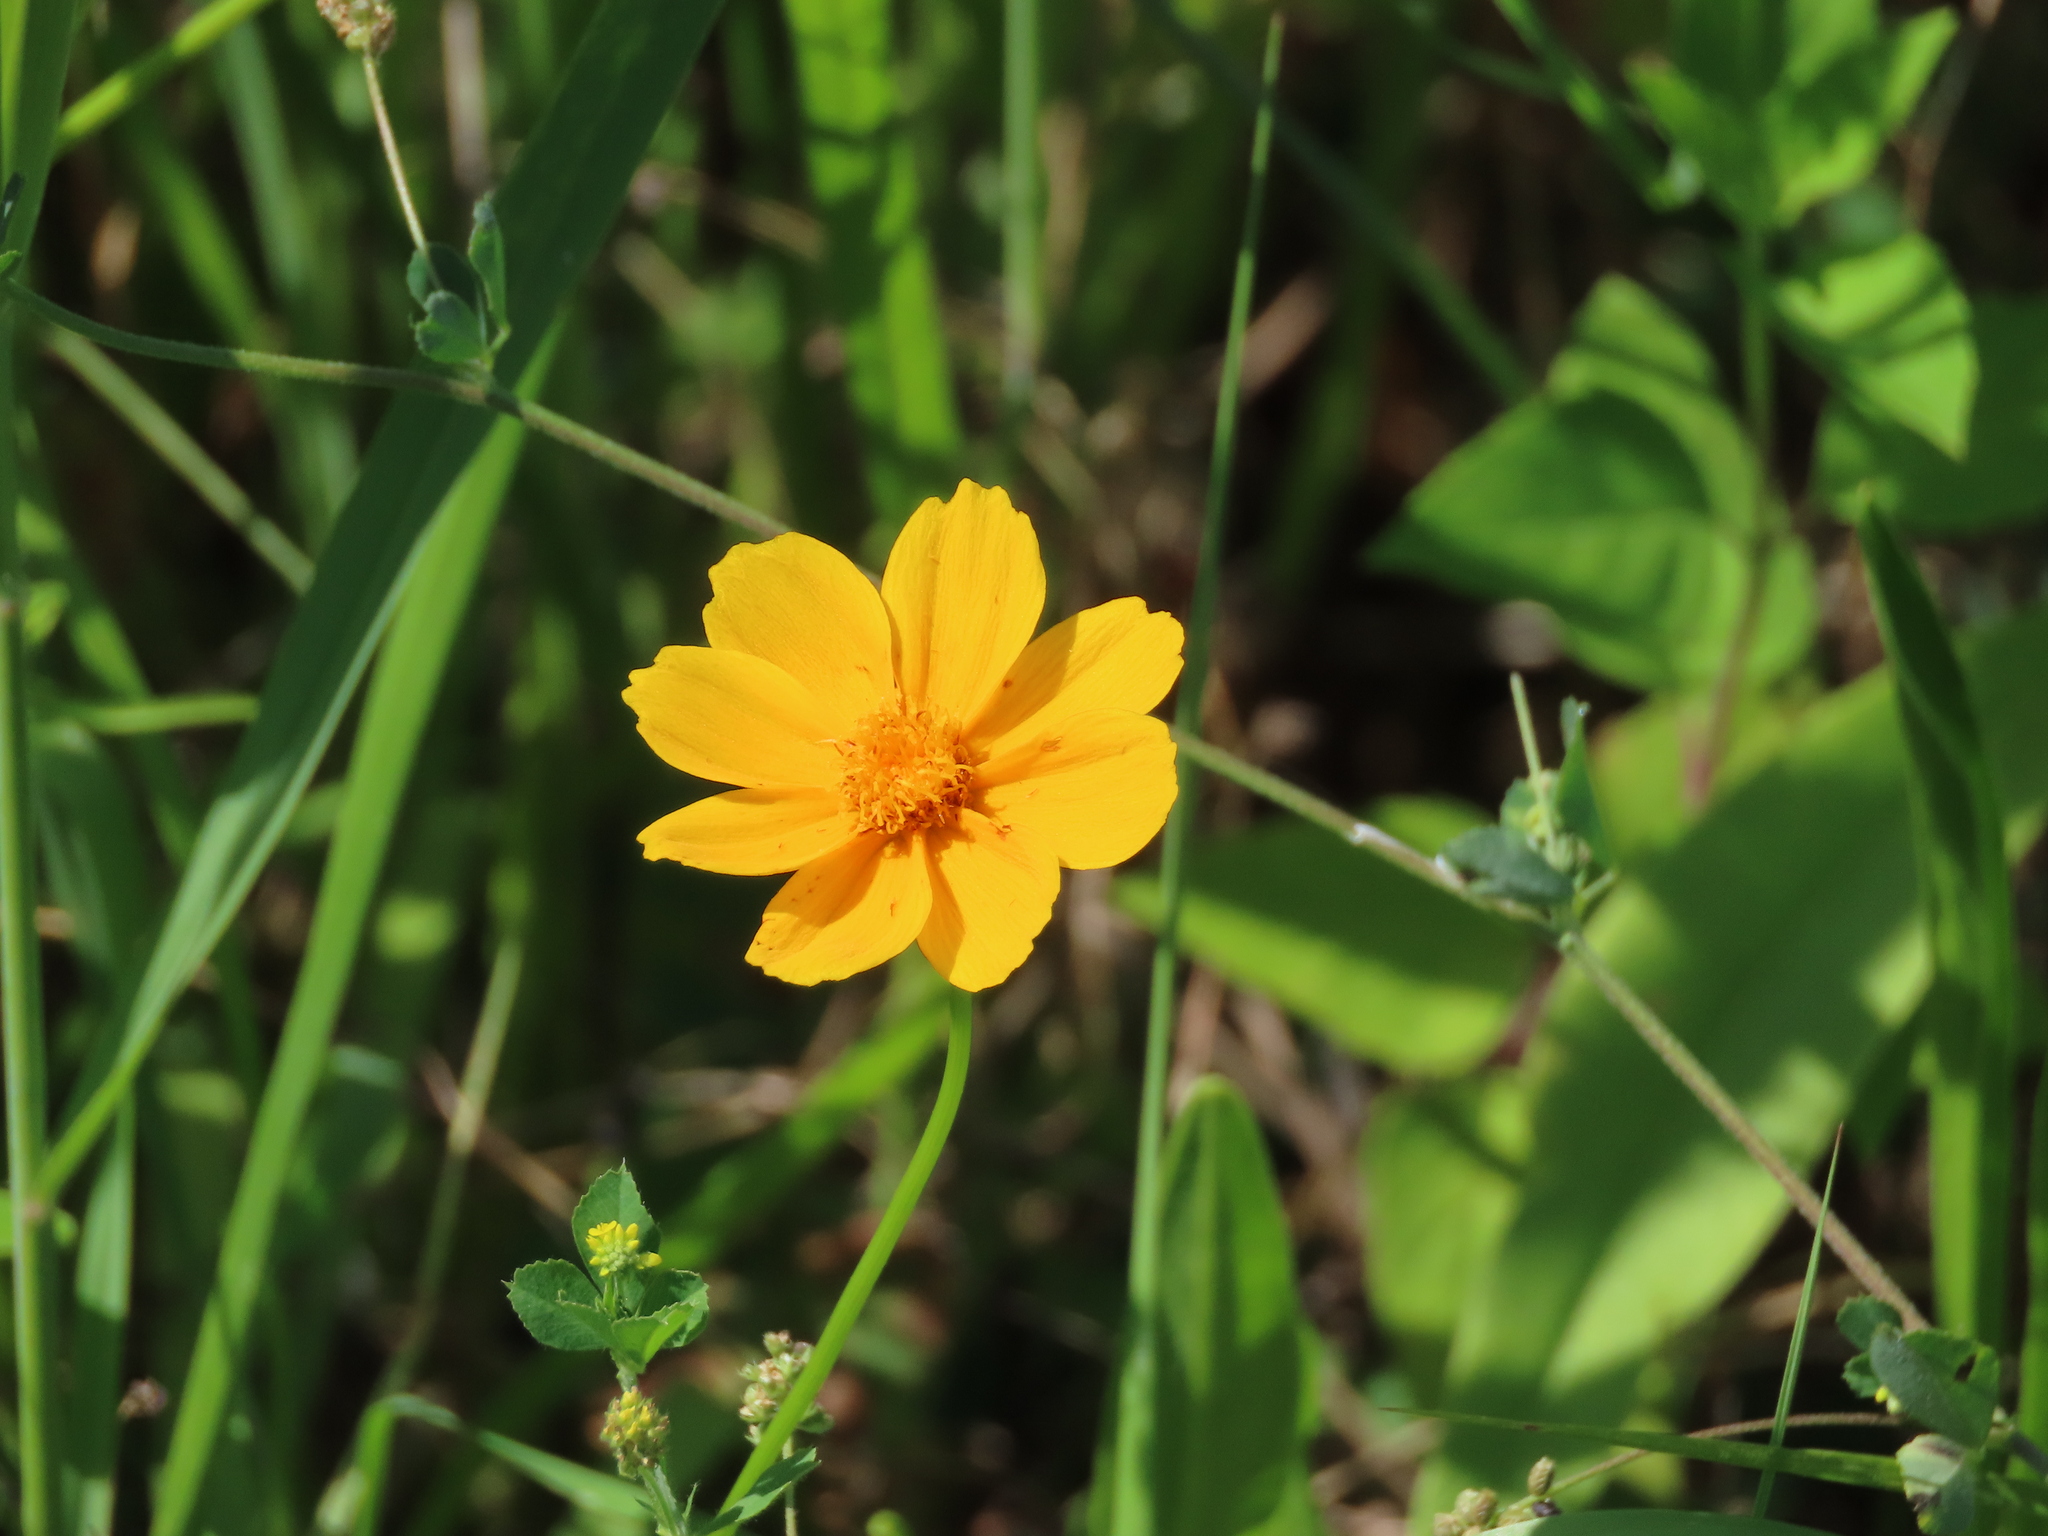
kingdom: Plantae
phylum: Tracheophyta
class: Magnoliopsida
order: Asterales
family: Asteraceae
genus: Coreopsis
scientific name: Coreopsis lanceolata
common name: Garden coreopsis
